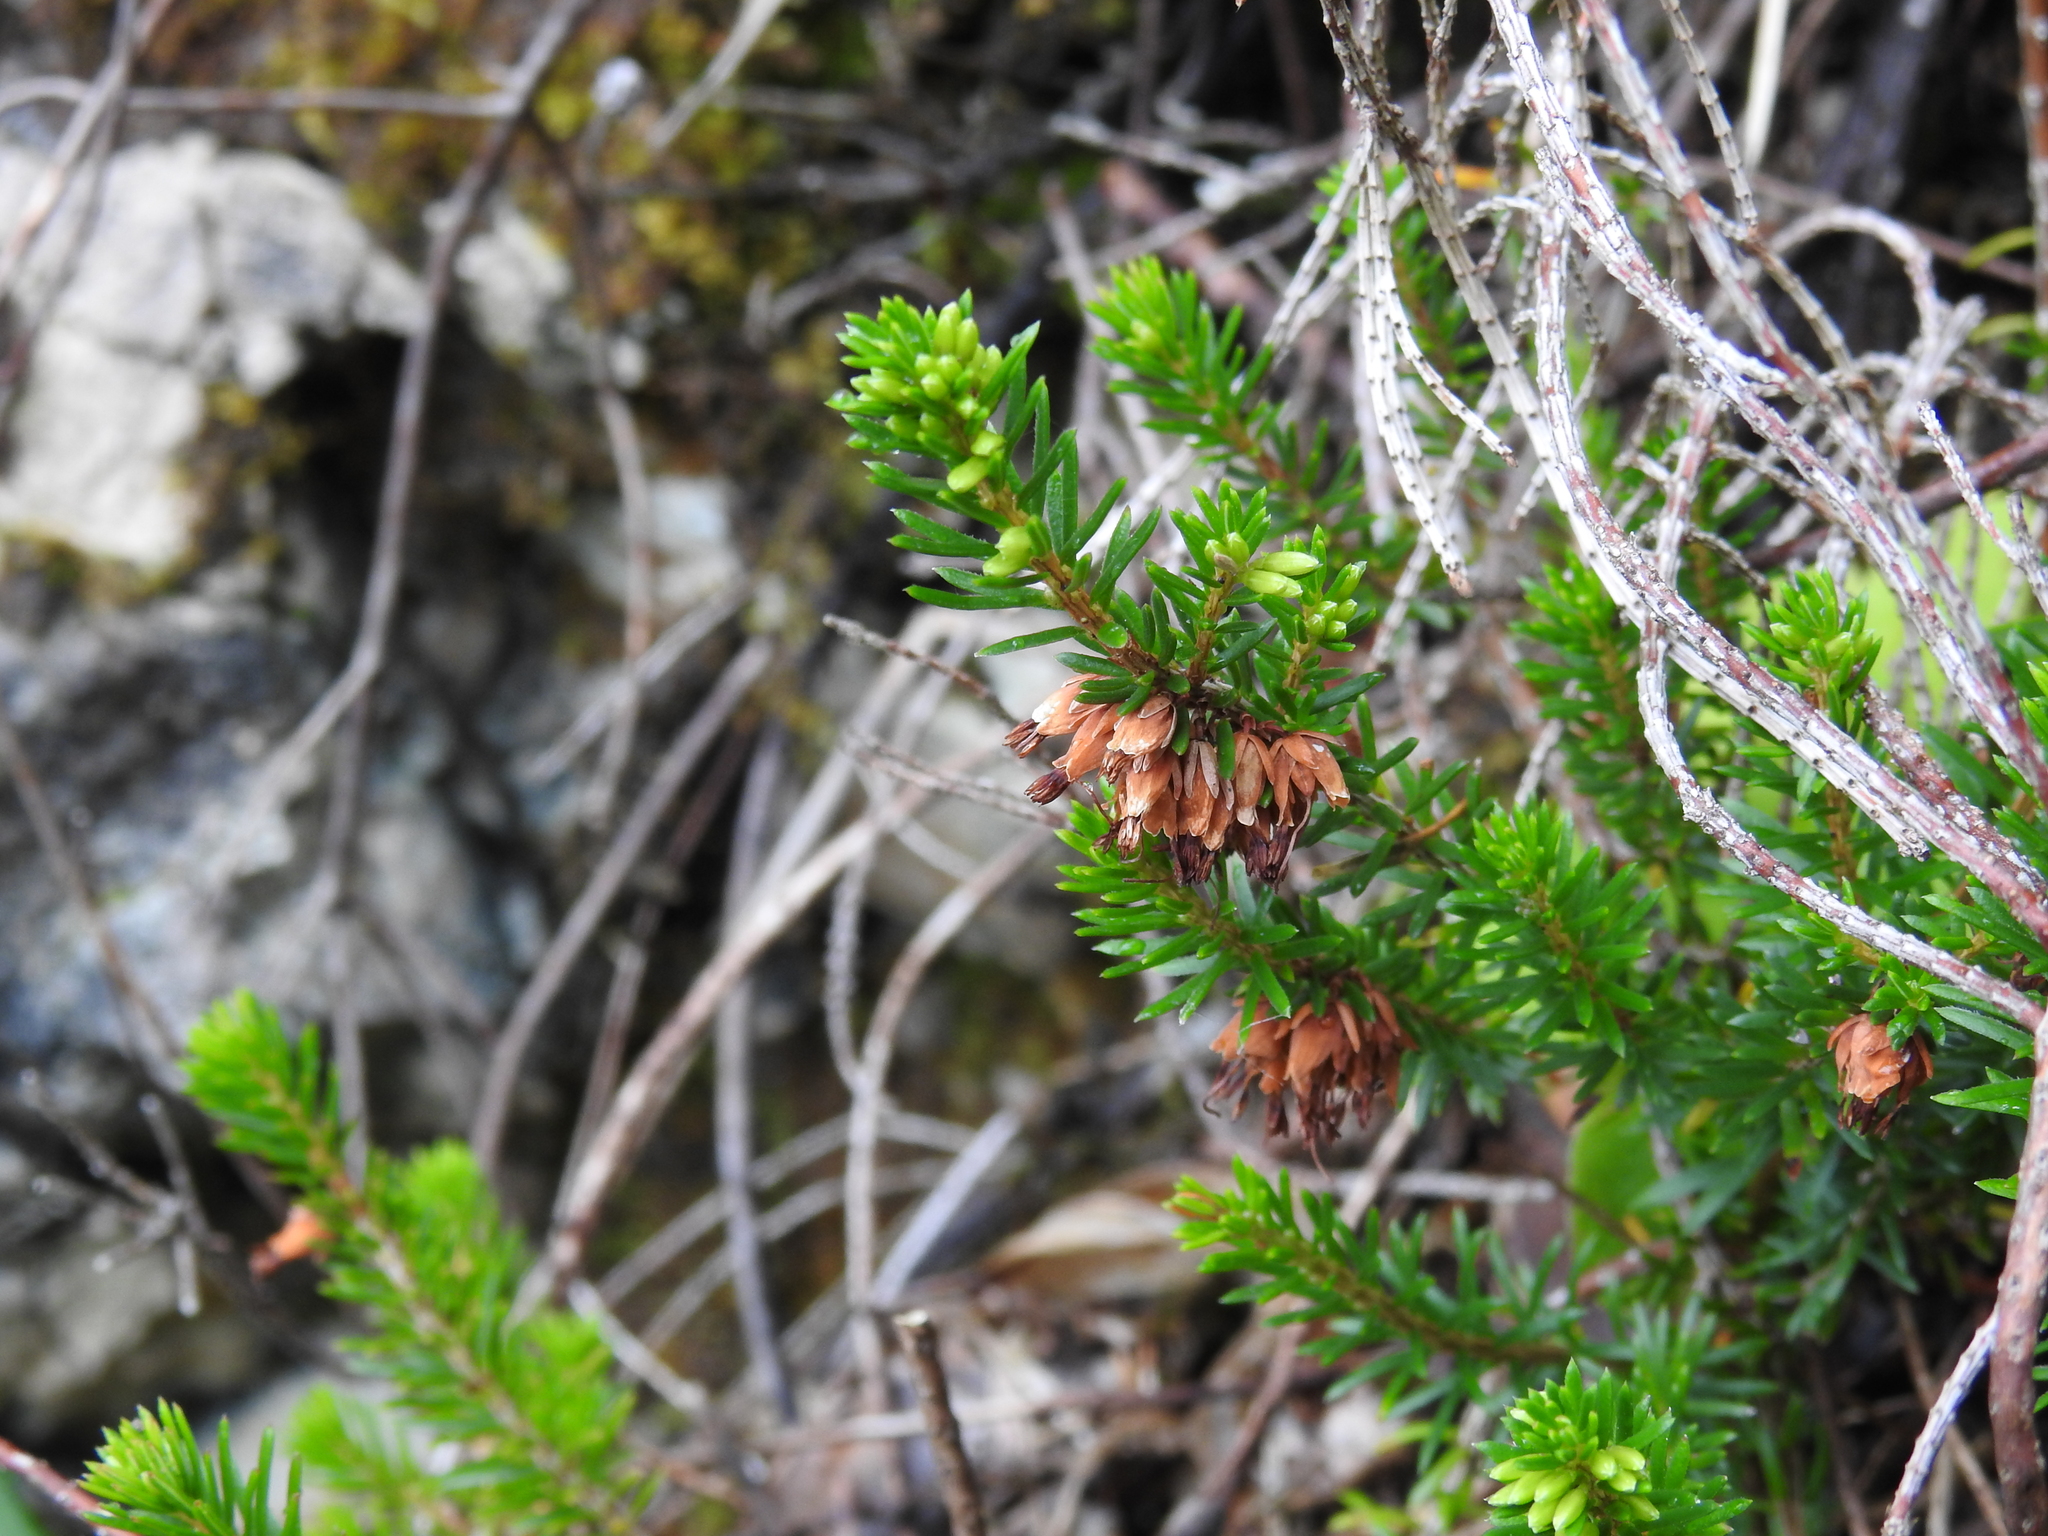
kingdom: Plantae
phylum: Tracheophyta
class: Magnoliopsida
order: Ericales
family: Ericaceae
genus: Erica
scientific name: Erica carnea
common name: Winter heath
